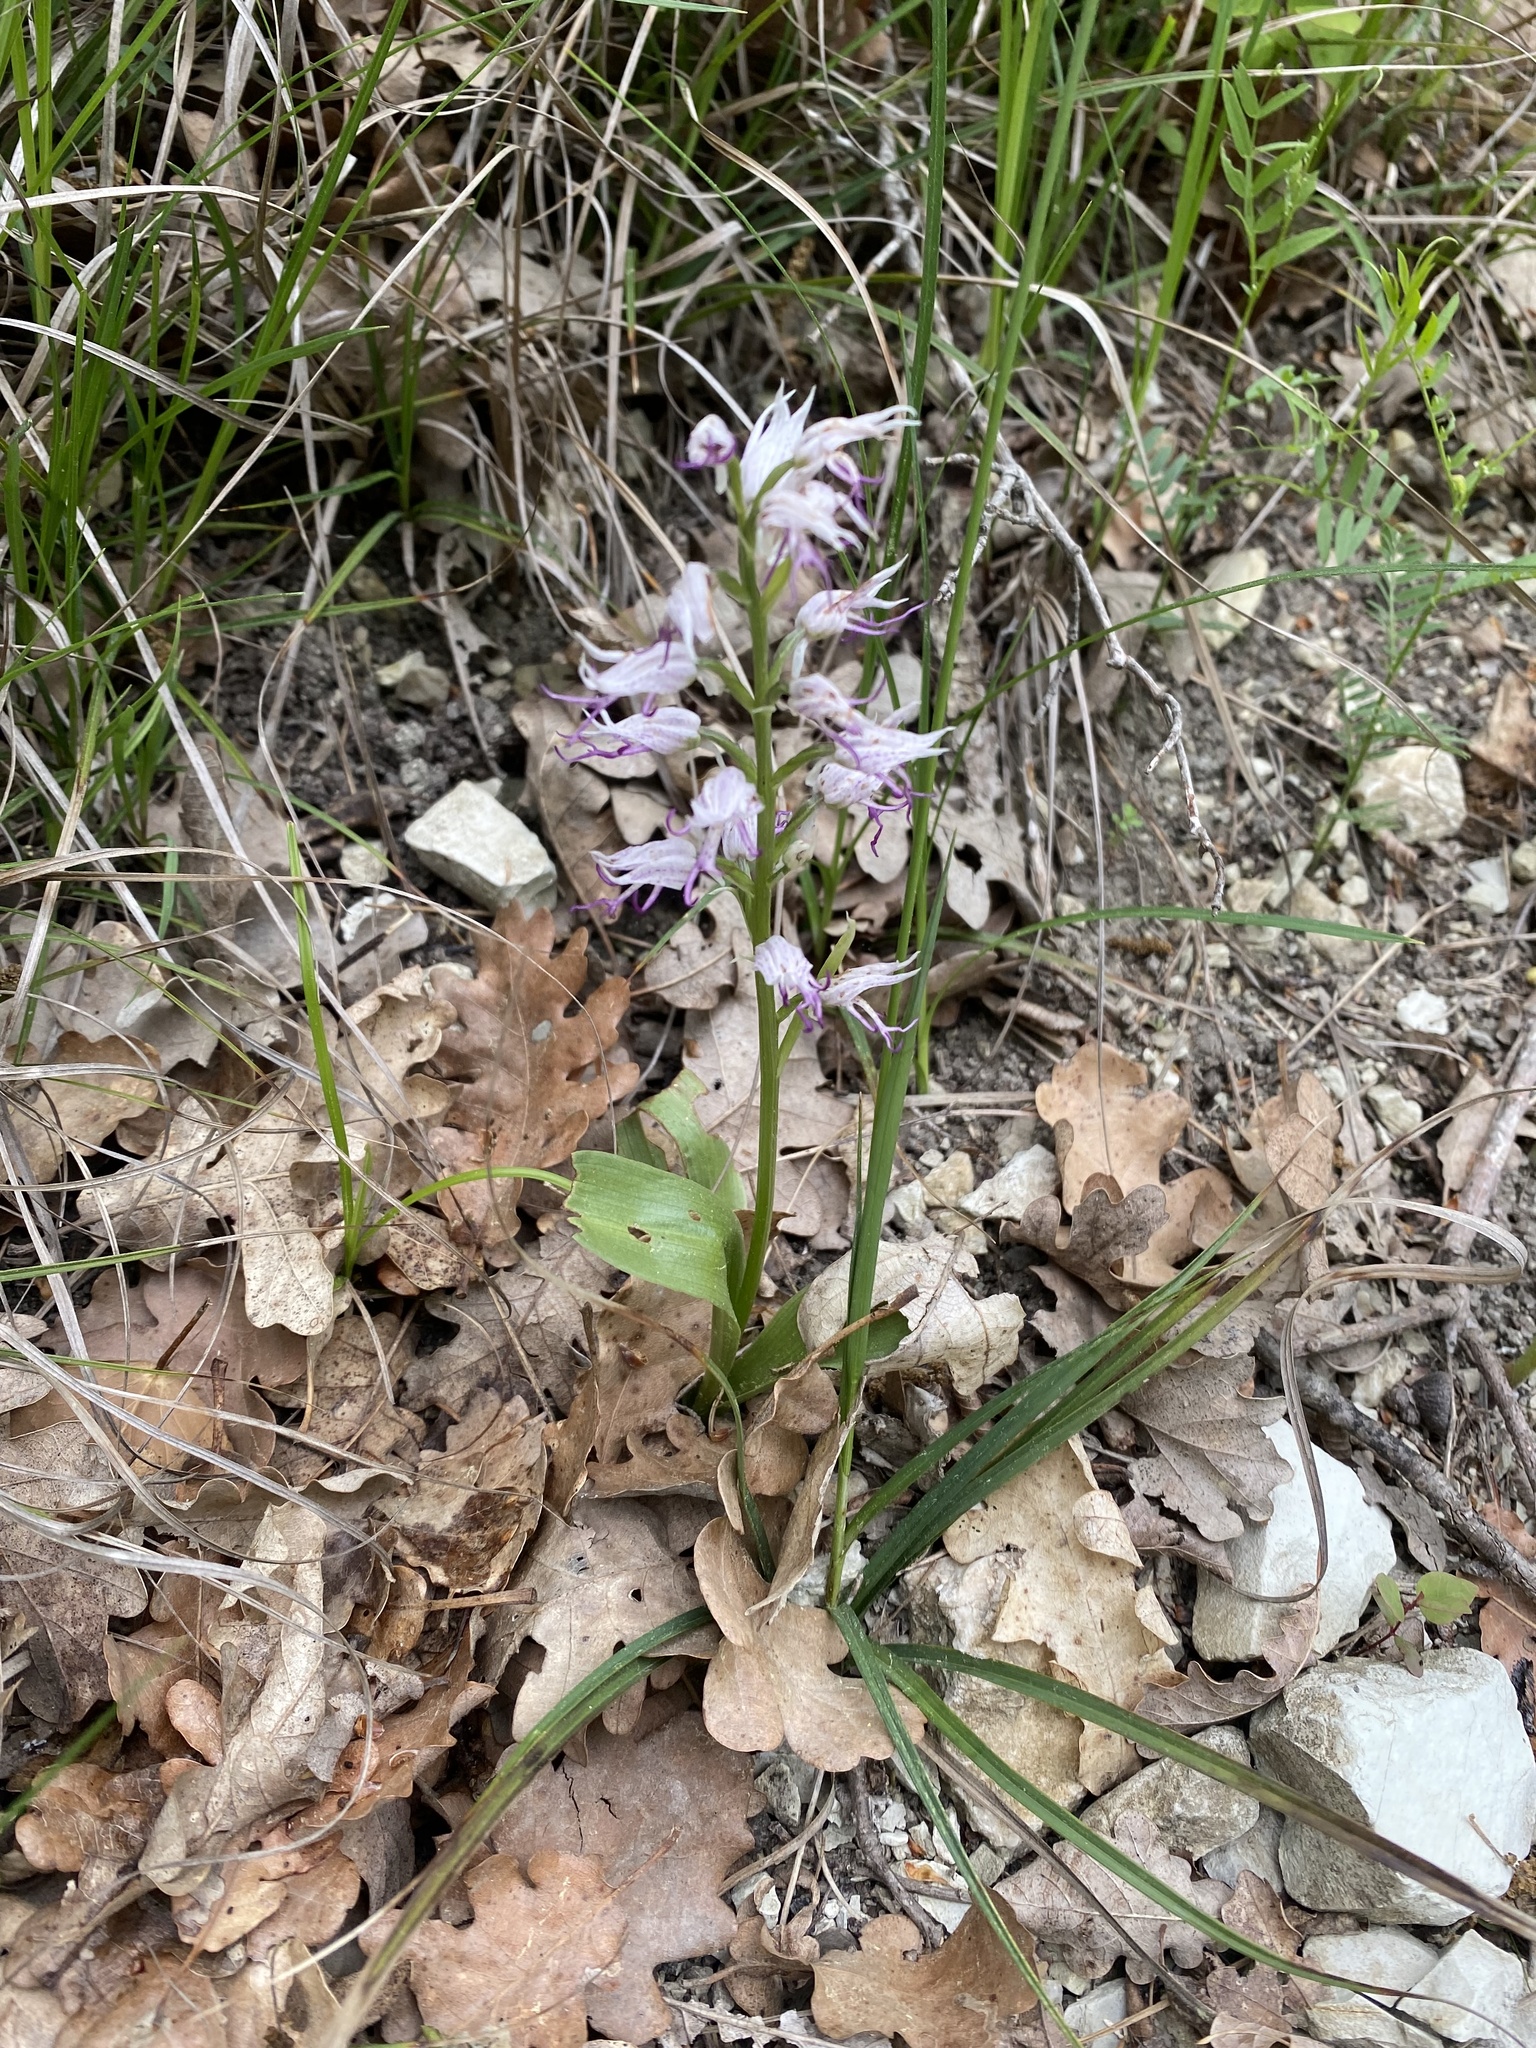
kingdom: Plantae
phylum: Tracheophyta
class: Liliopsida
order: Asparagales
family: Orchidaceae
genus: Orchis
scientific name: Orchis simia
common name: Monkey orchid
